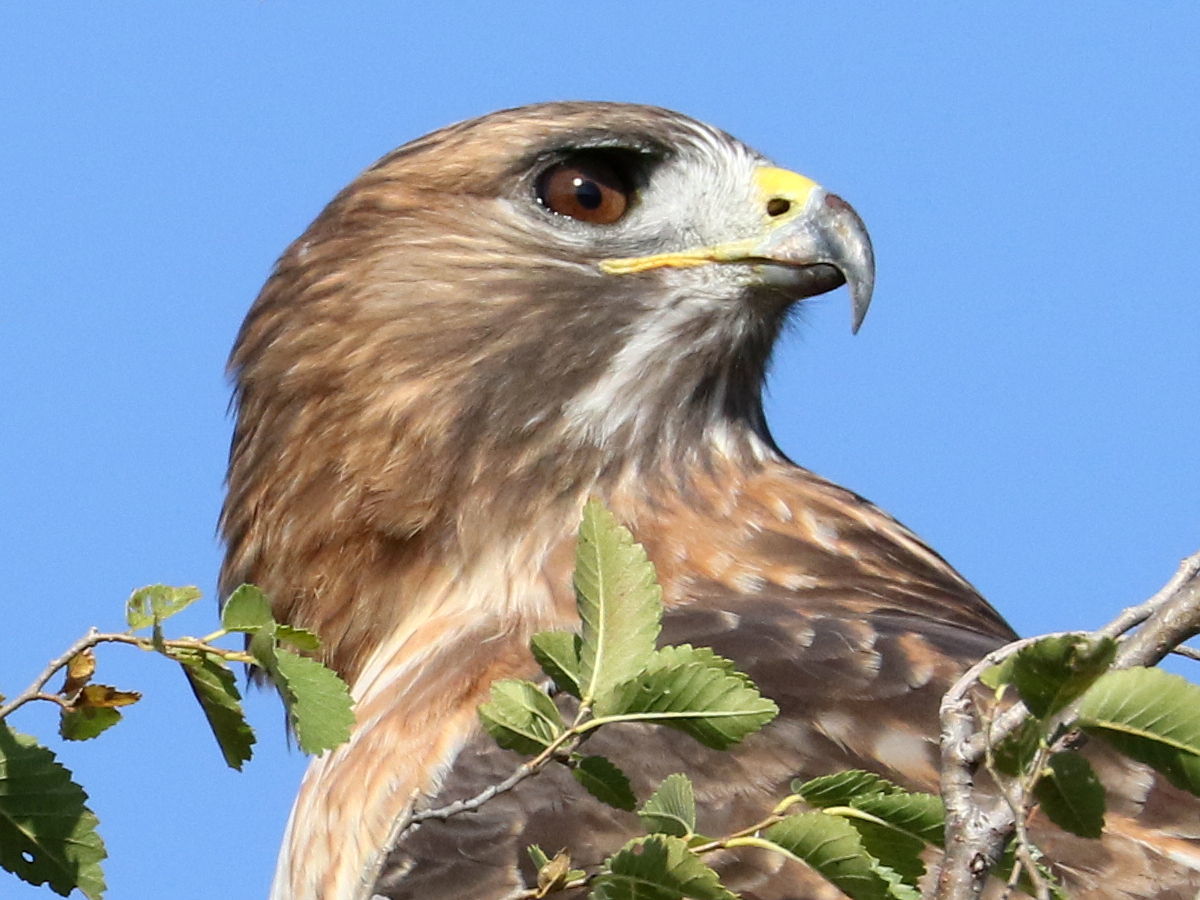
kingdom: Animalia
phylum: Chordata
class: Aves
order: Accipitriformes
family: Accipitridae
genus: Buteo
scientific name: Buteo jamaicensis
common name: Red-tailed hawk
